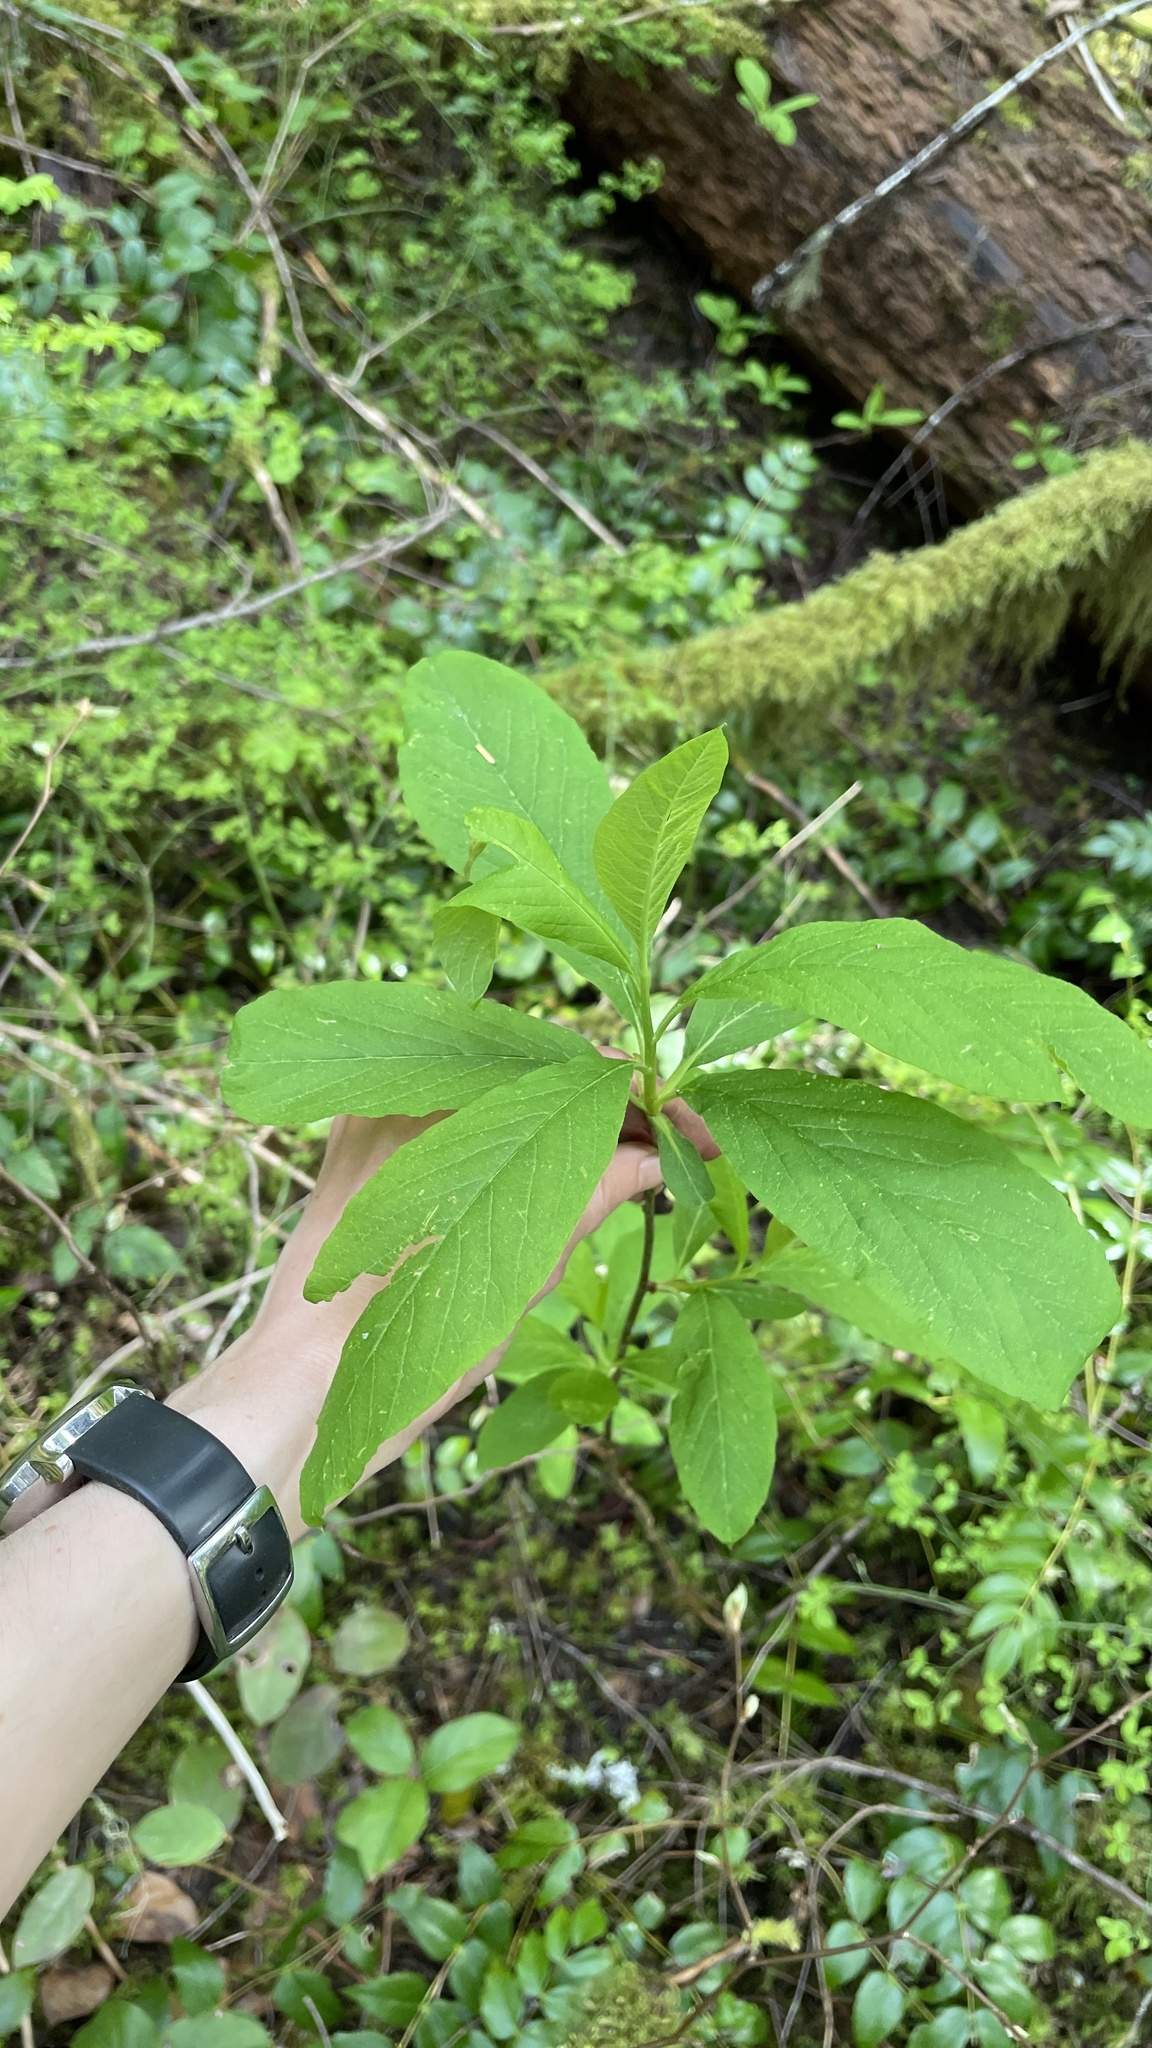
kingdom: Plantae
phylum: Tracheophyta
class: Magnoliopsida
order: Rosales
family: Rosaceae
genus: Oemleria
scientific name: Oemleria cerasiformis
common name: Osoberry
